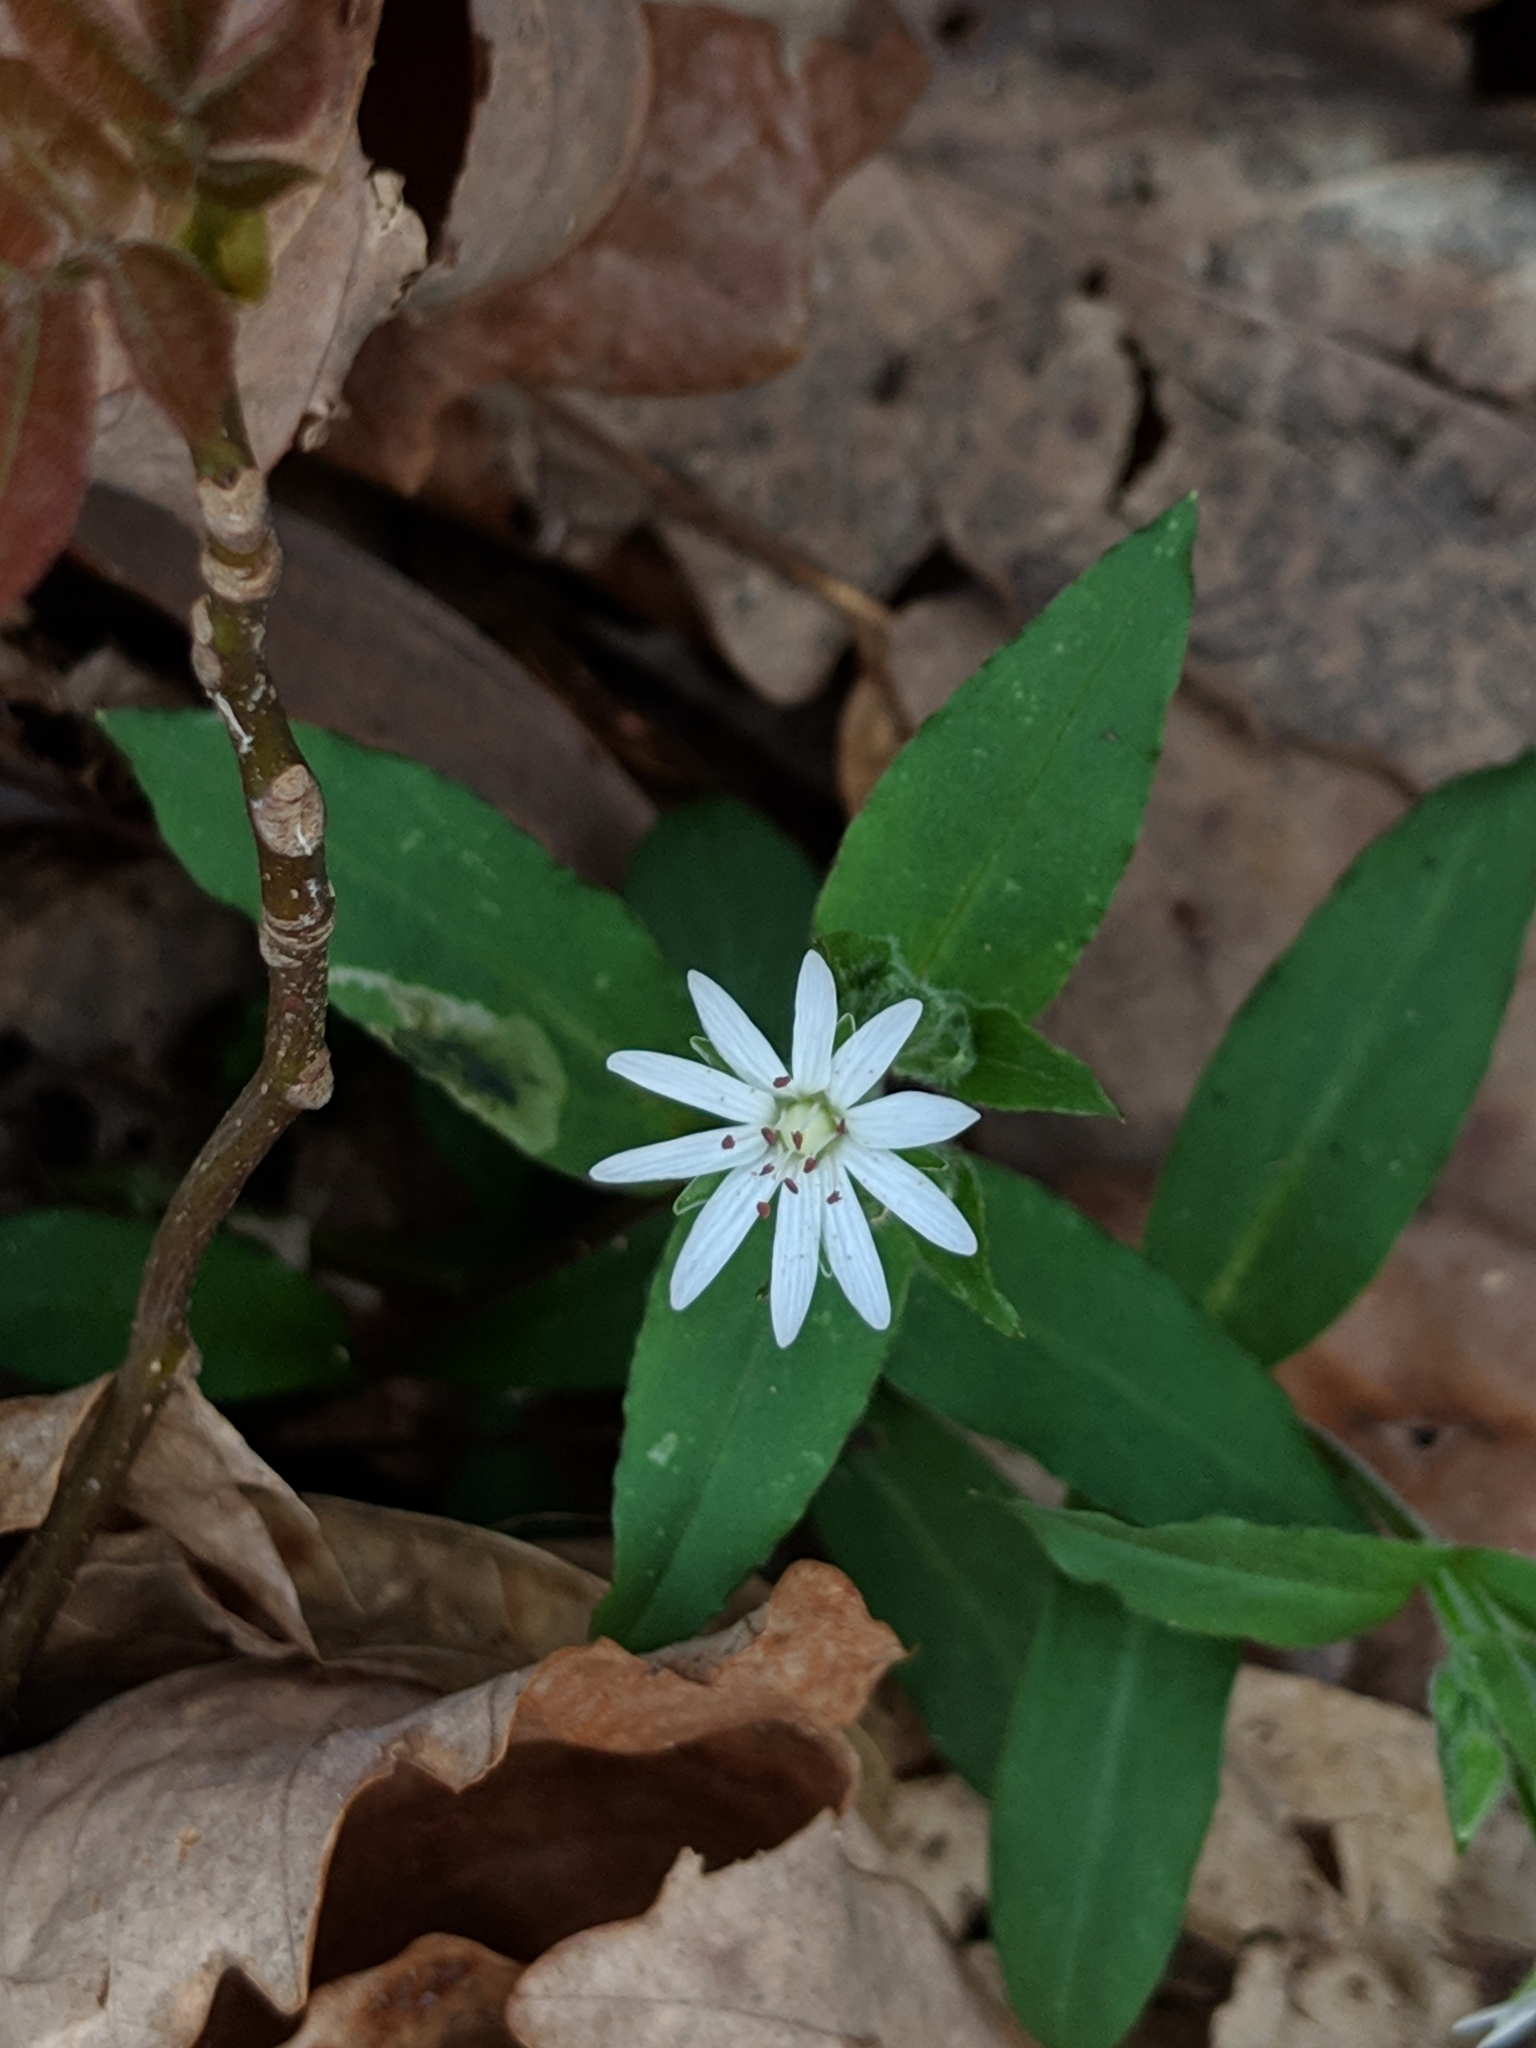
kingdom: Plantae
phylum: Tracheophyta
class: Magnoliopsida
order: Caryophyllales
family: Caryophyllaceae
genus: Stellaria
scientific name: Stellaria pubera
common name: Star chickweed
